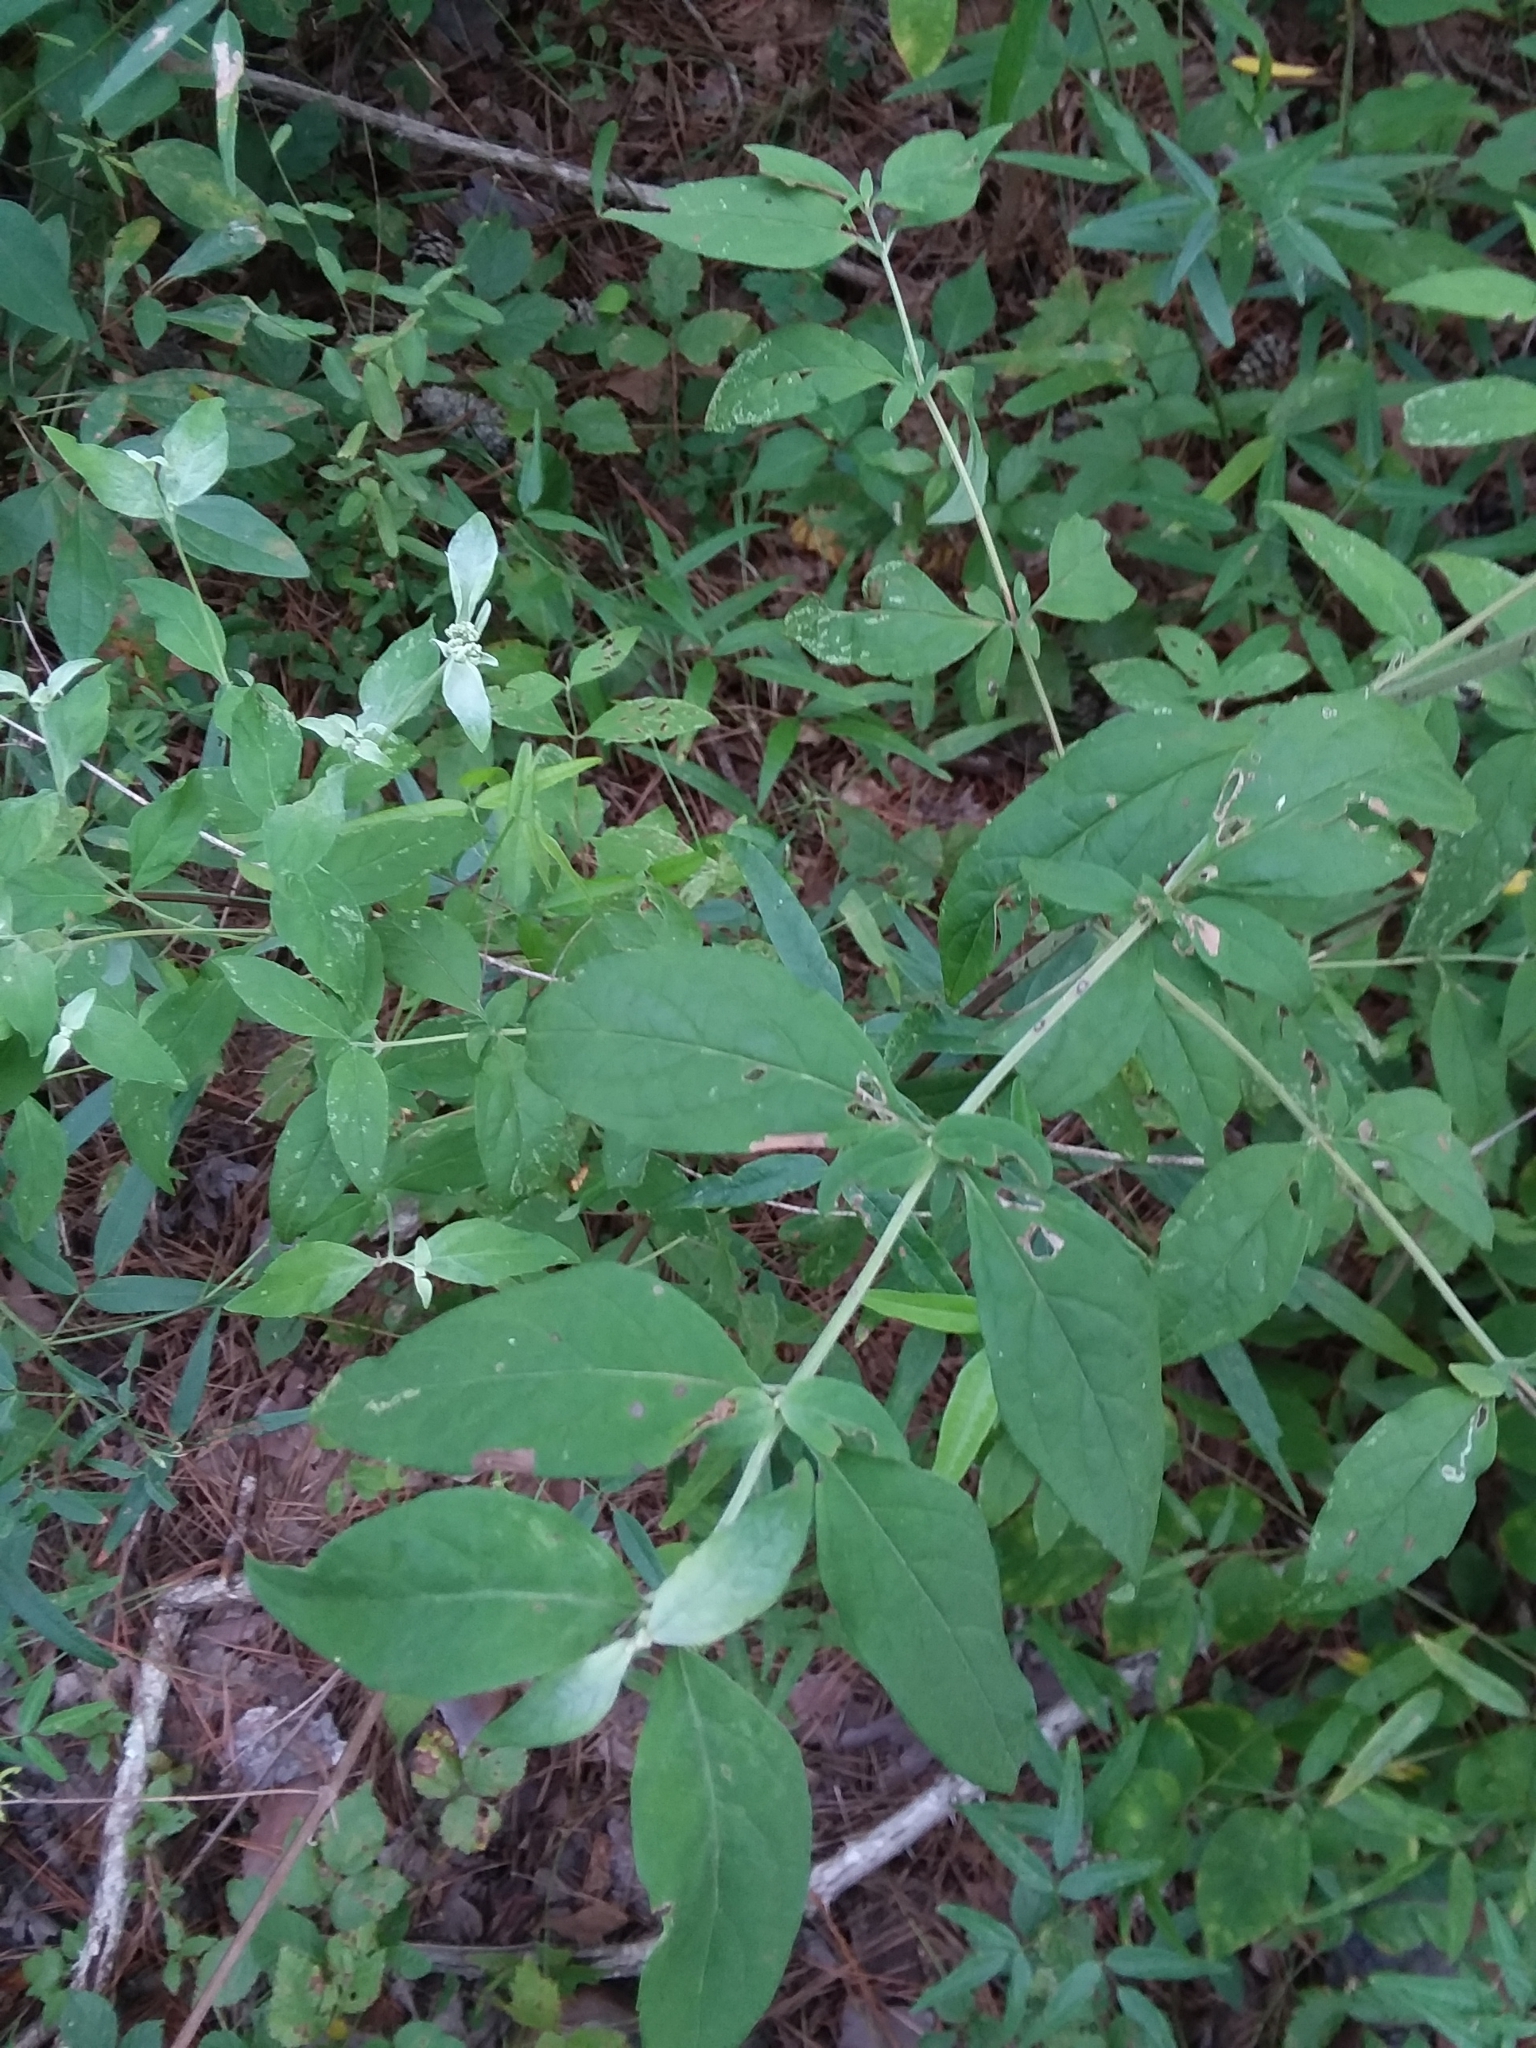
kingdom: Plantae
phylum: Tracheophyta
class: Magnoliopsida
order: Lamiales
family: Lamiaceae
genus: Pycnanthemum
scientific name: Pycnanthemum albescens
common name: White-leaf mountain-mint
